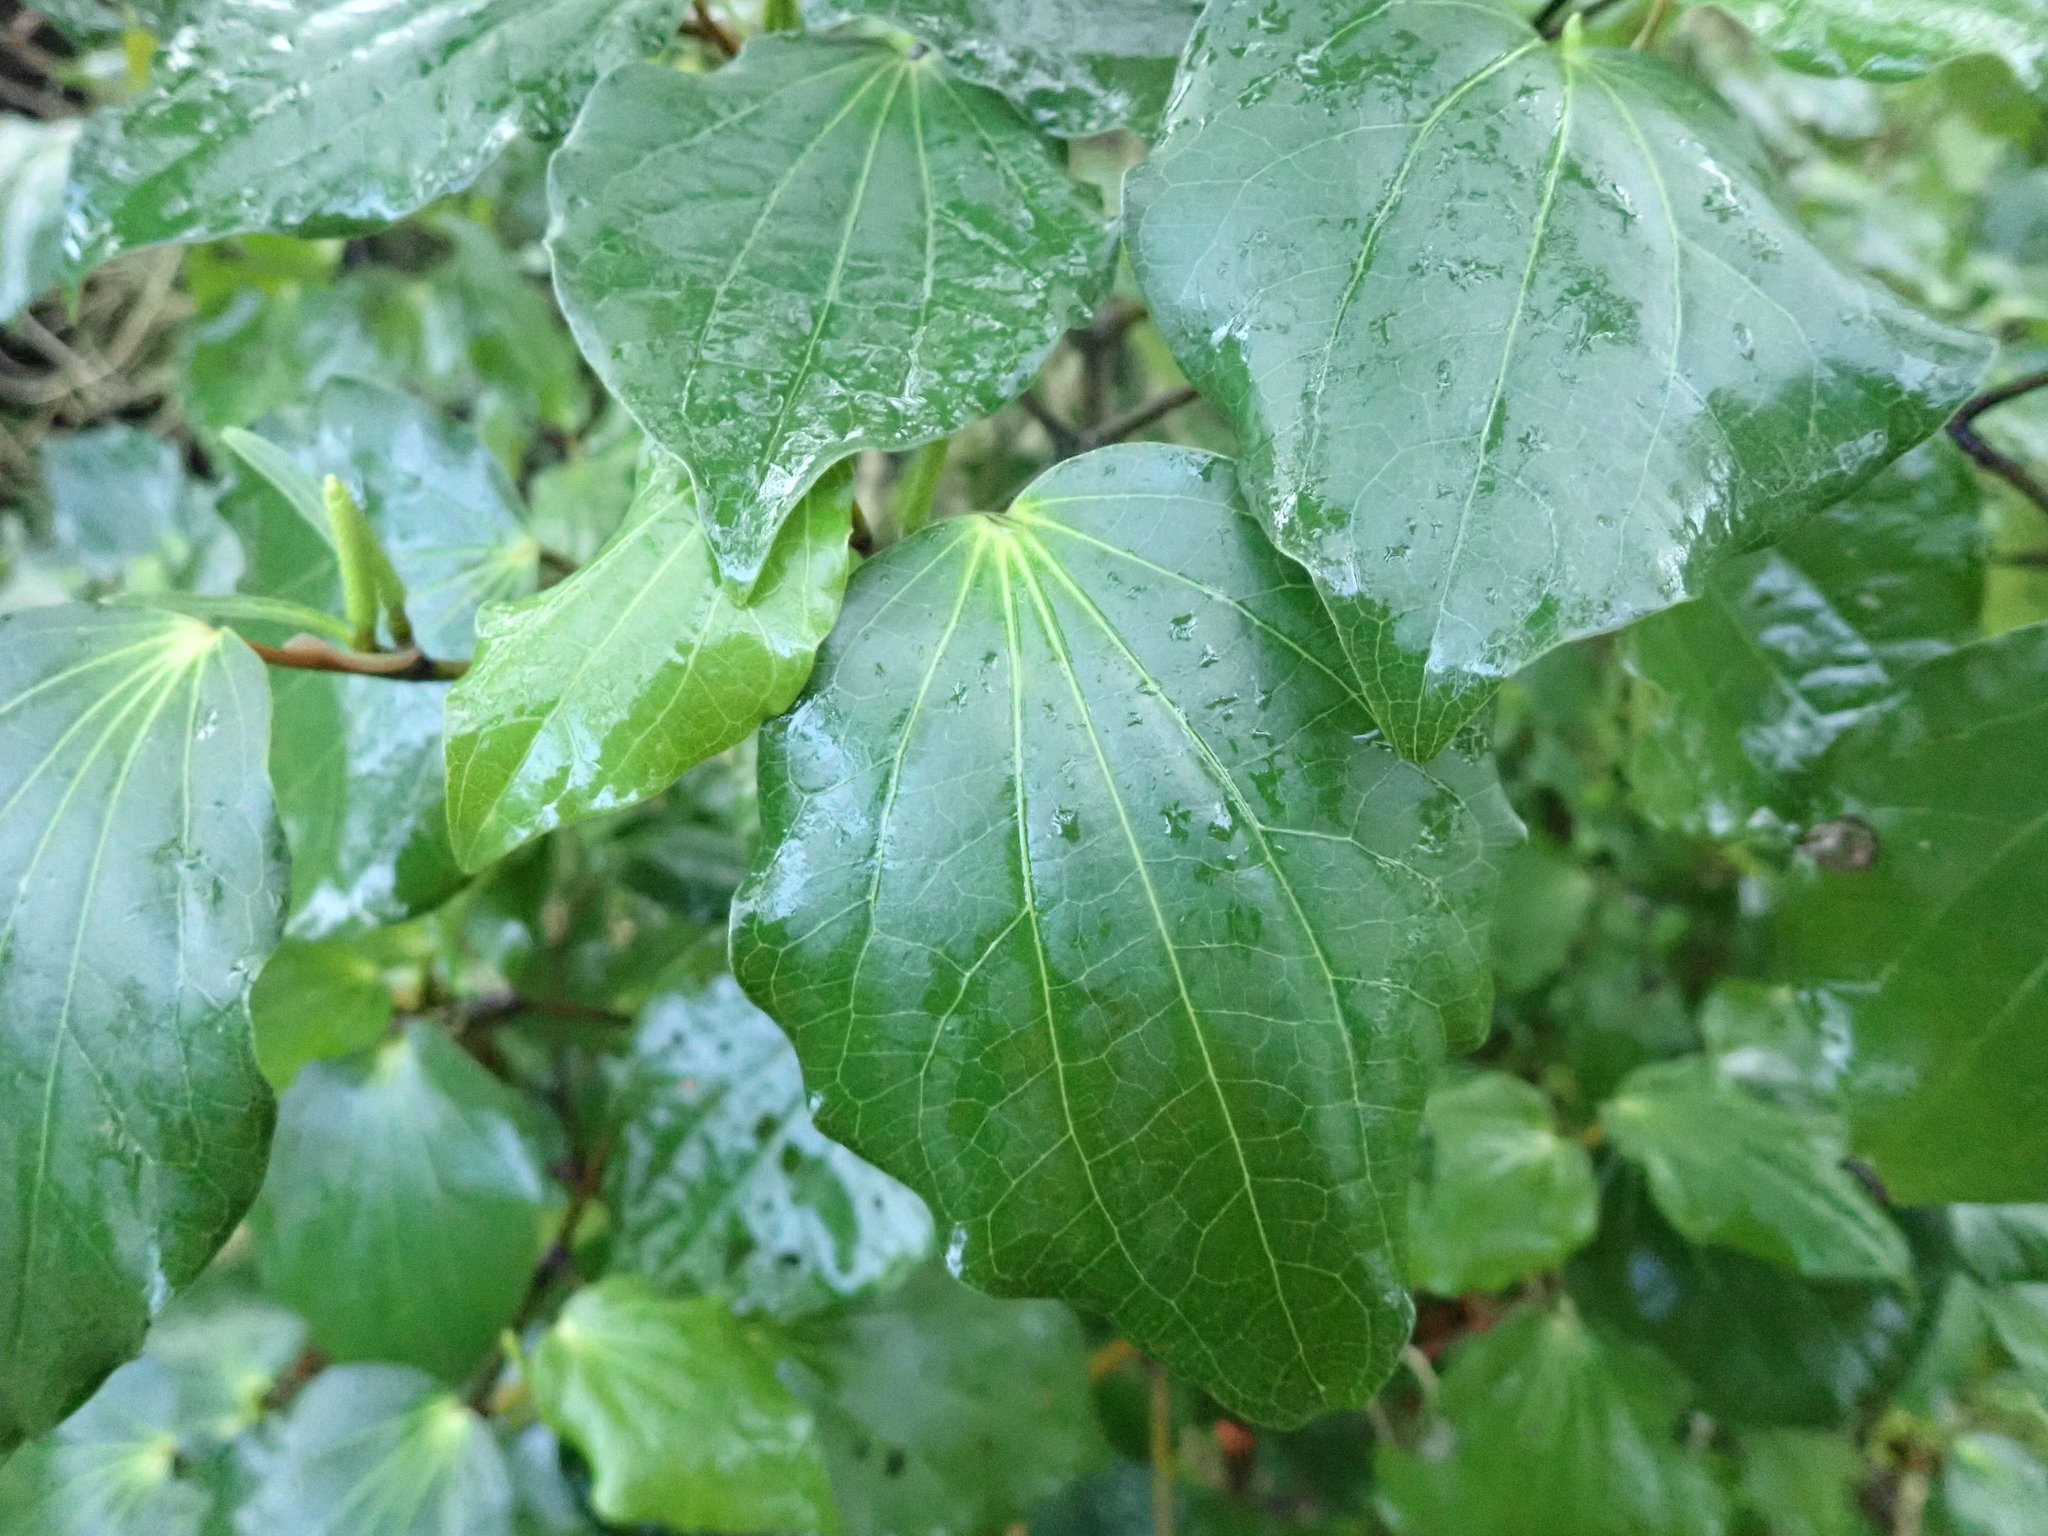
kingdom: Plantae
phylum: Tracheophyta
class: Magnoliopsida
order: Piperales
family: Piperaceae
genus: Macropiper
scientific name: Macropiper excelsum
